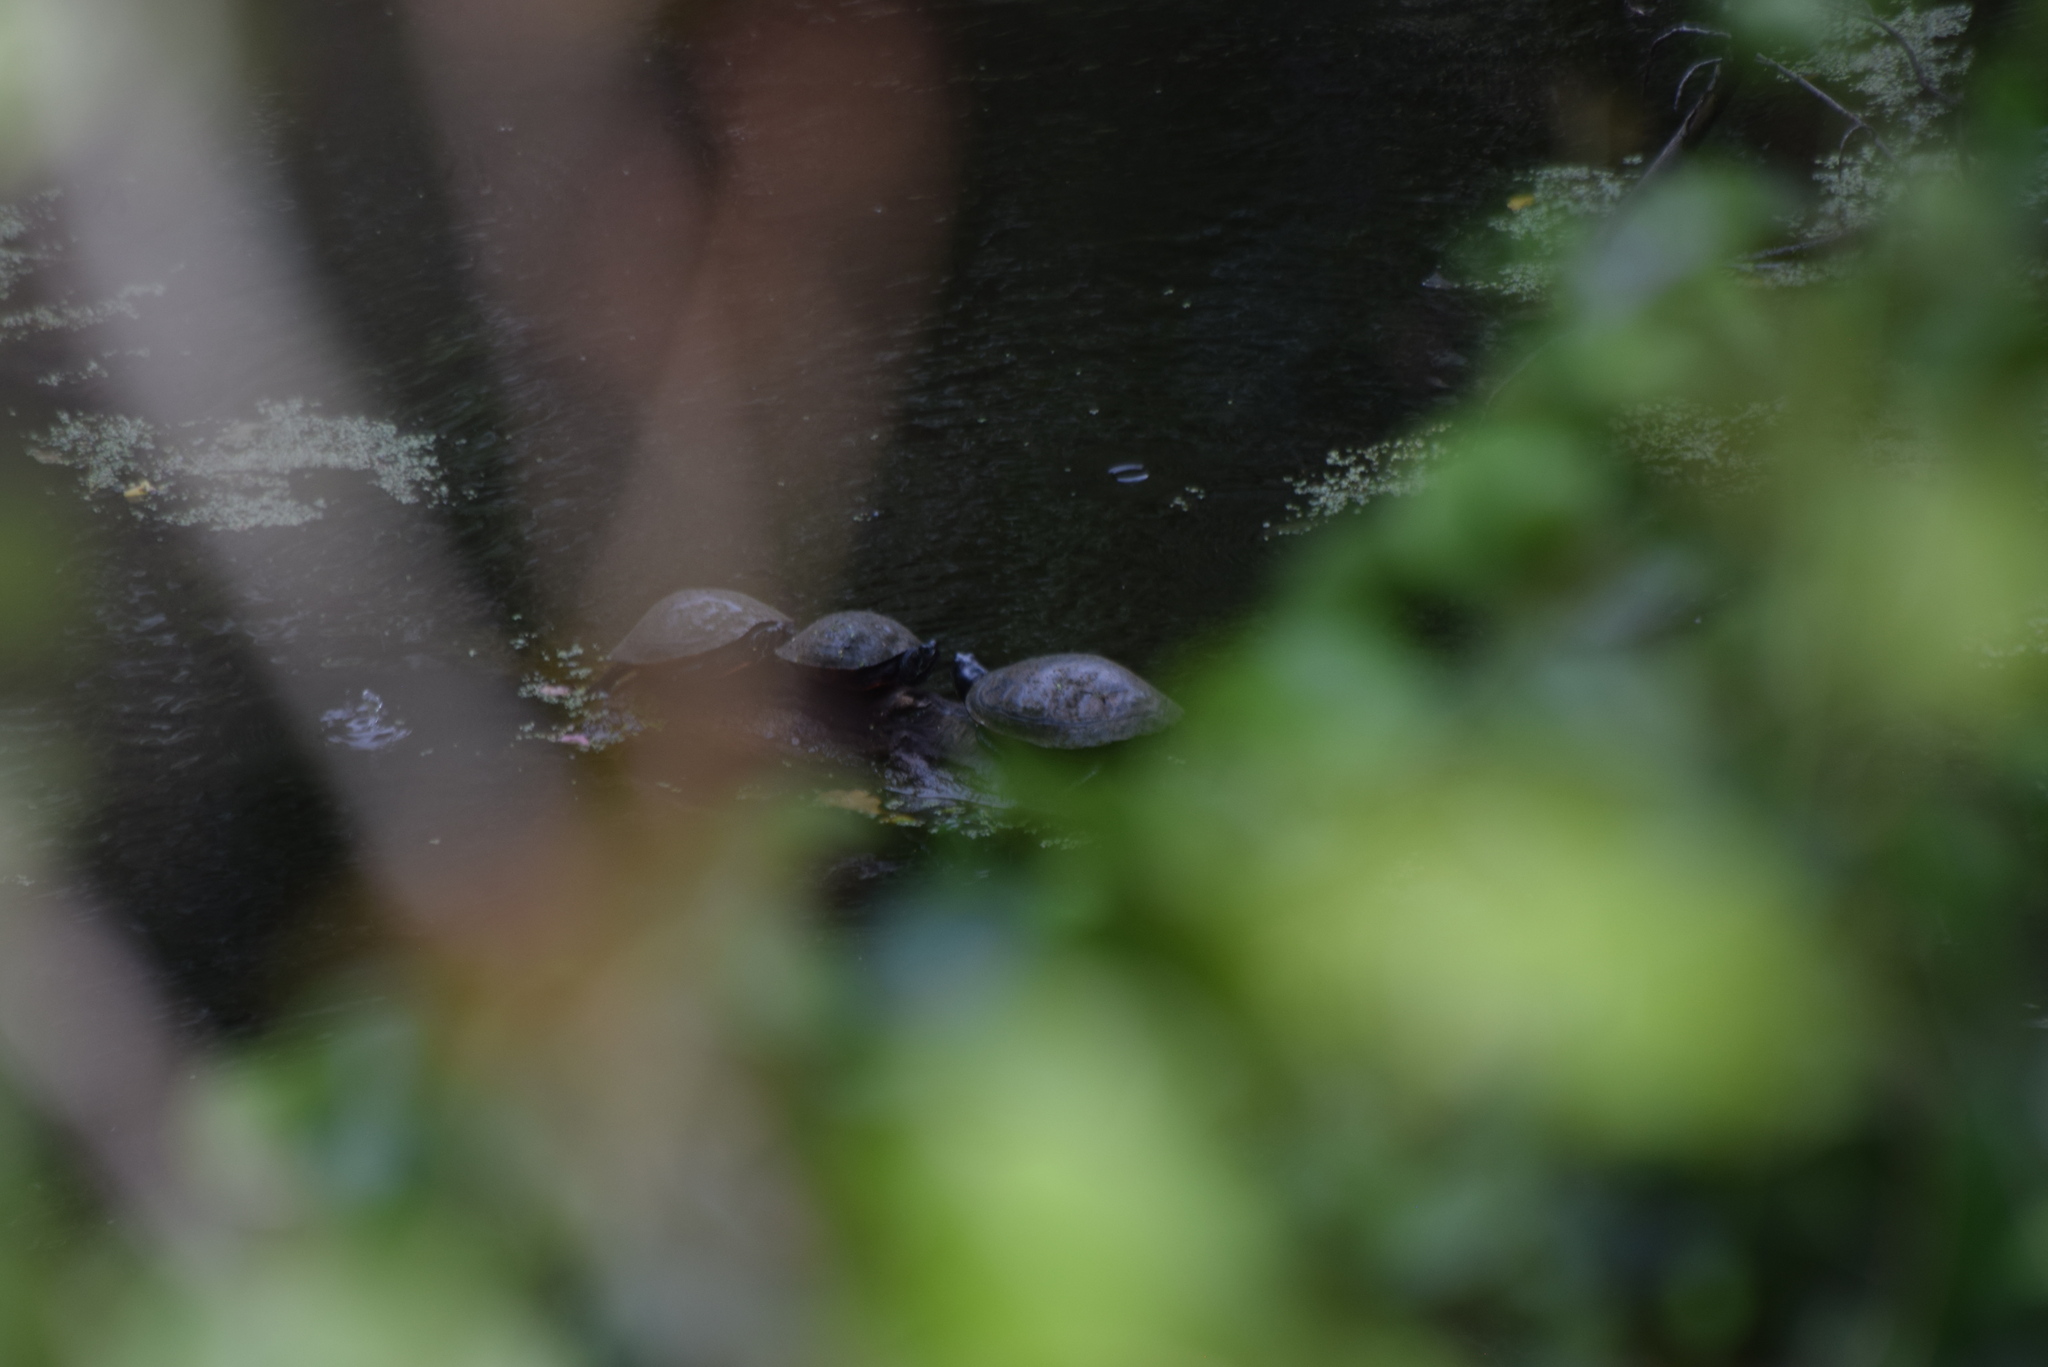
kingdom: Animalia
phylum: Chordata
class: Testudines
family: Emydidae
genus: Pseudemys
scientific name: Pseudemys rubriventris
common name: American red-bellied turtle
